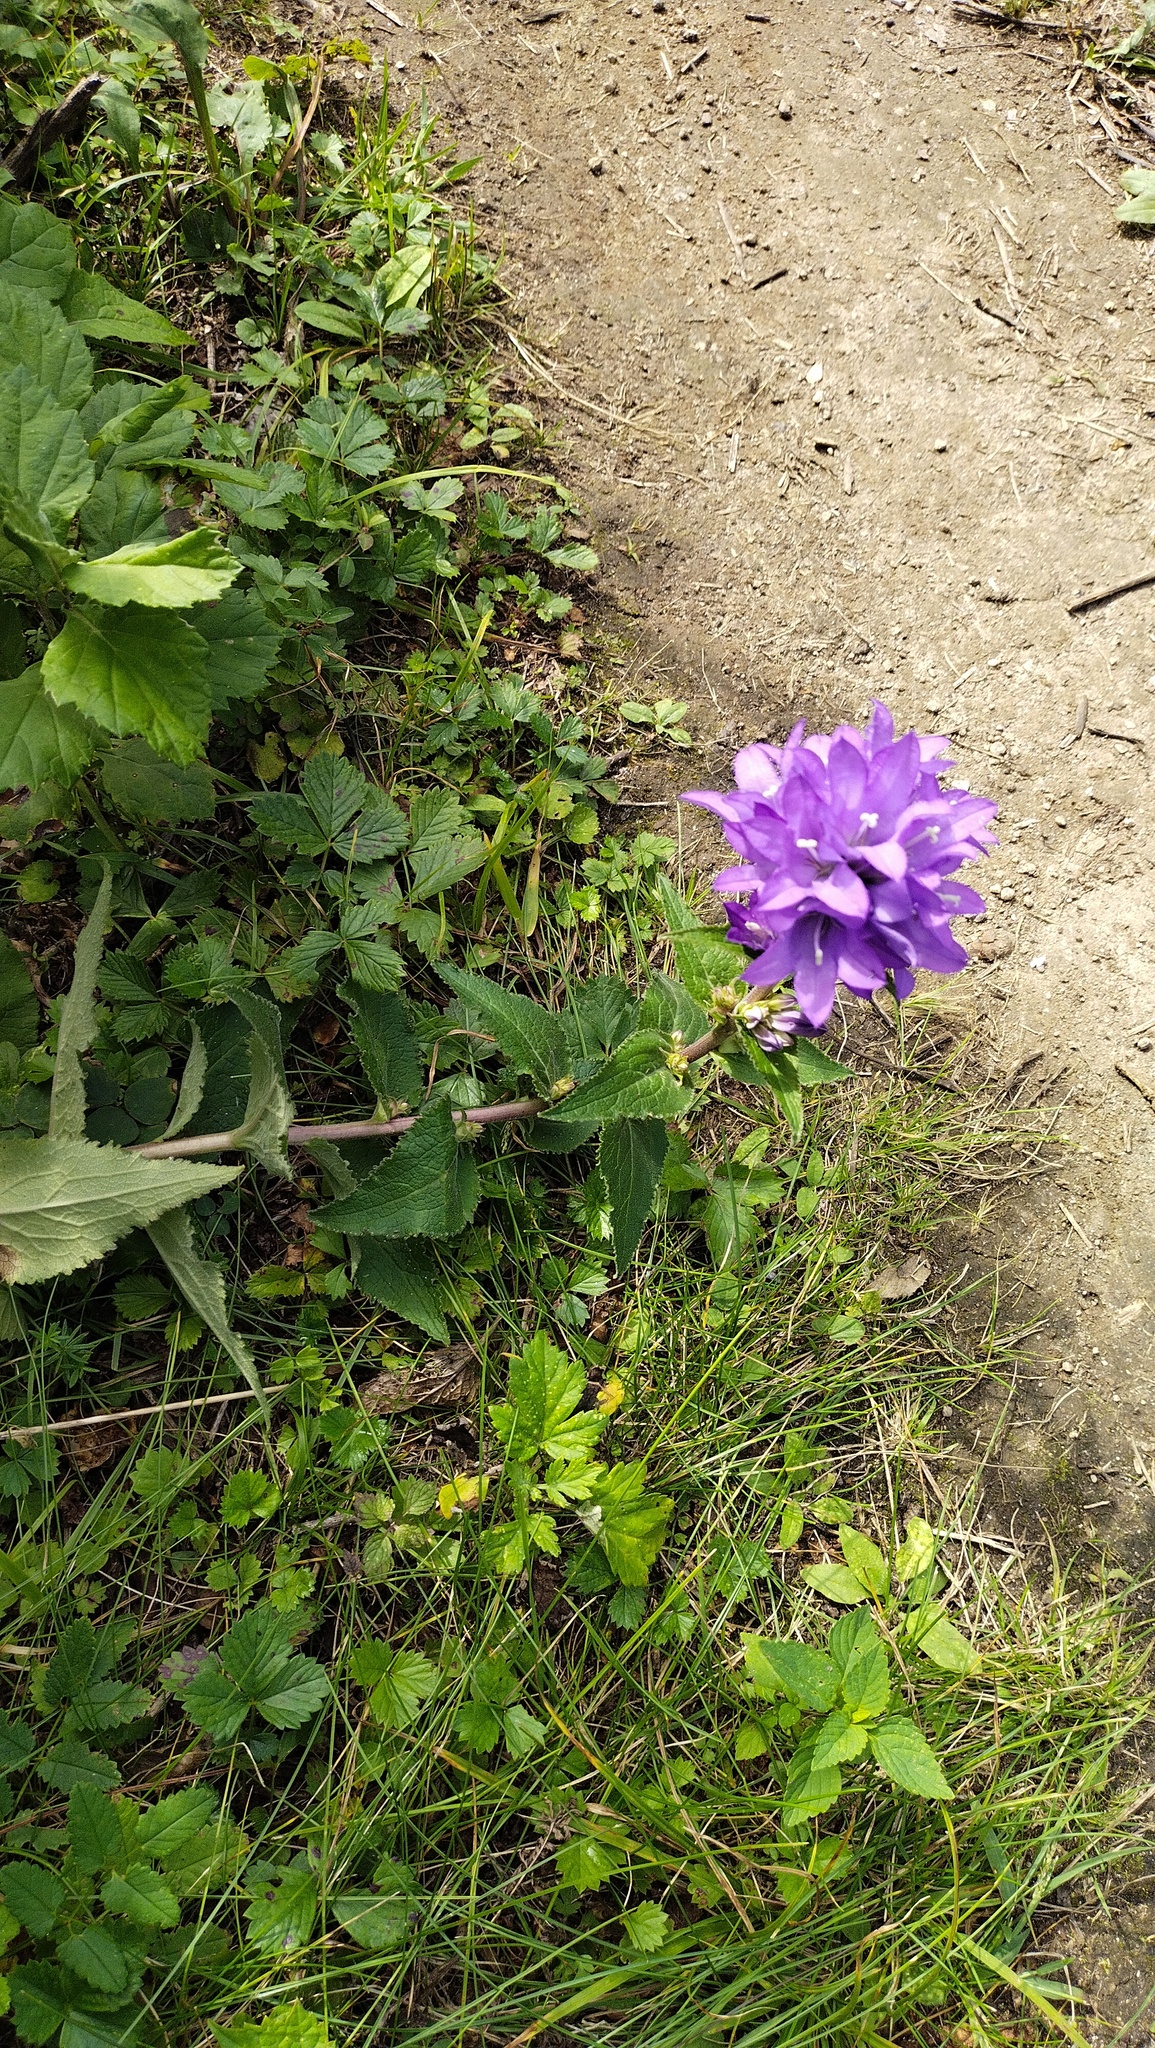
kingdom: Plantae
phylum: Tracheophyta
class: Magnoliopsida
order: Asterales
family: Campanulaceae
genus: Campanula
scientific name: Campanula glomerata
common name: Clustered bellflower
